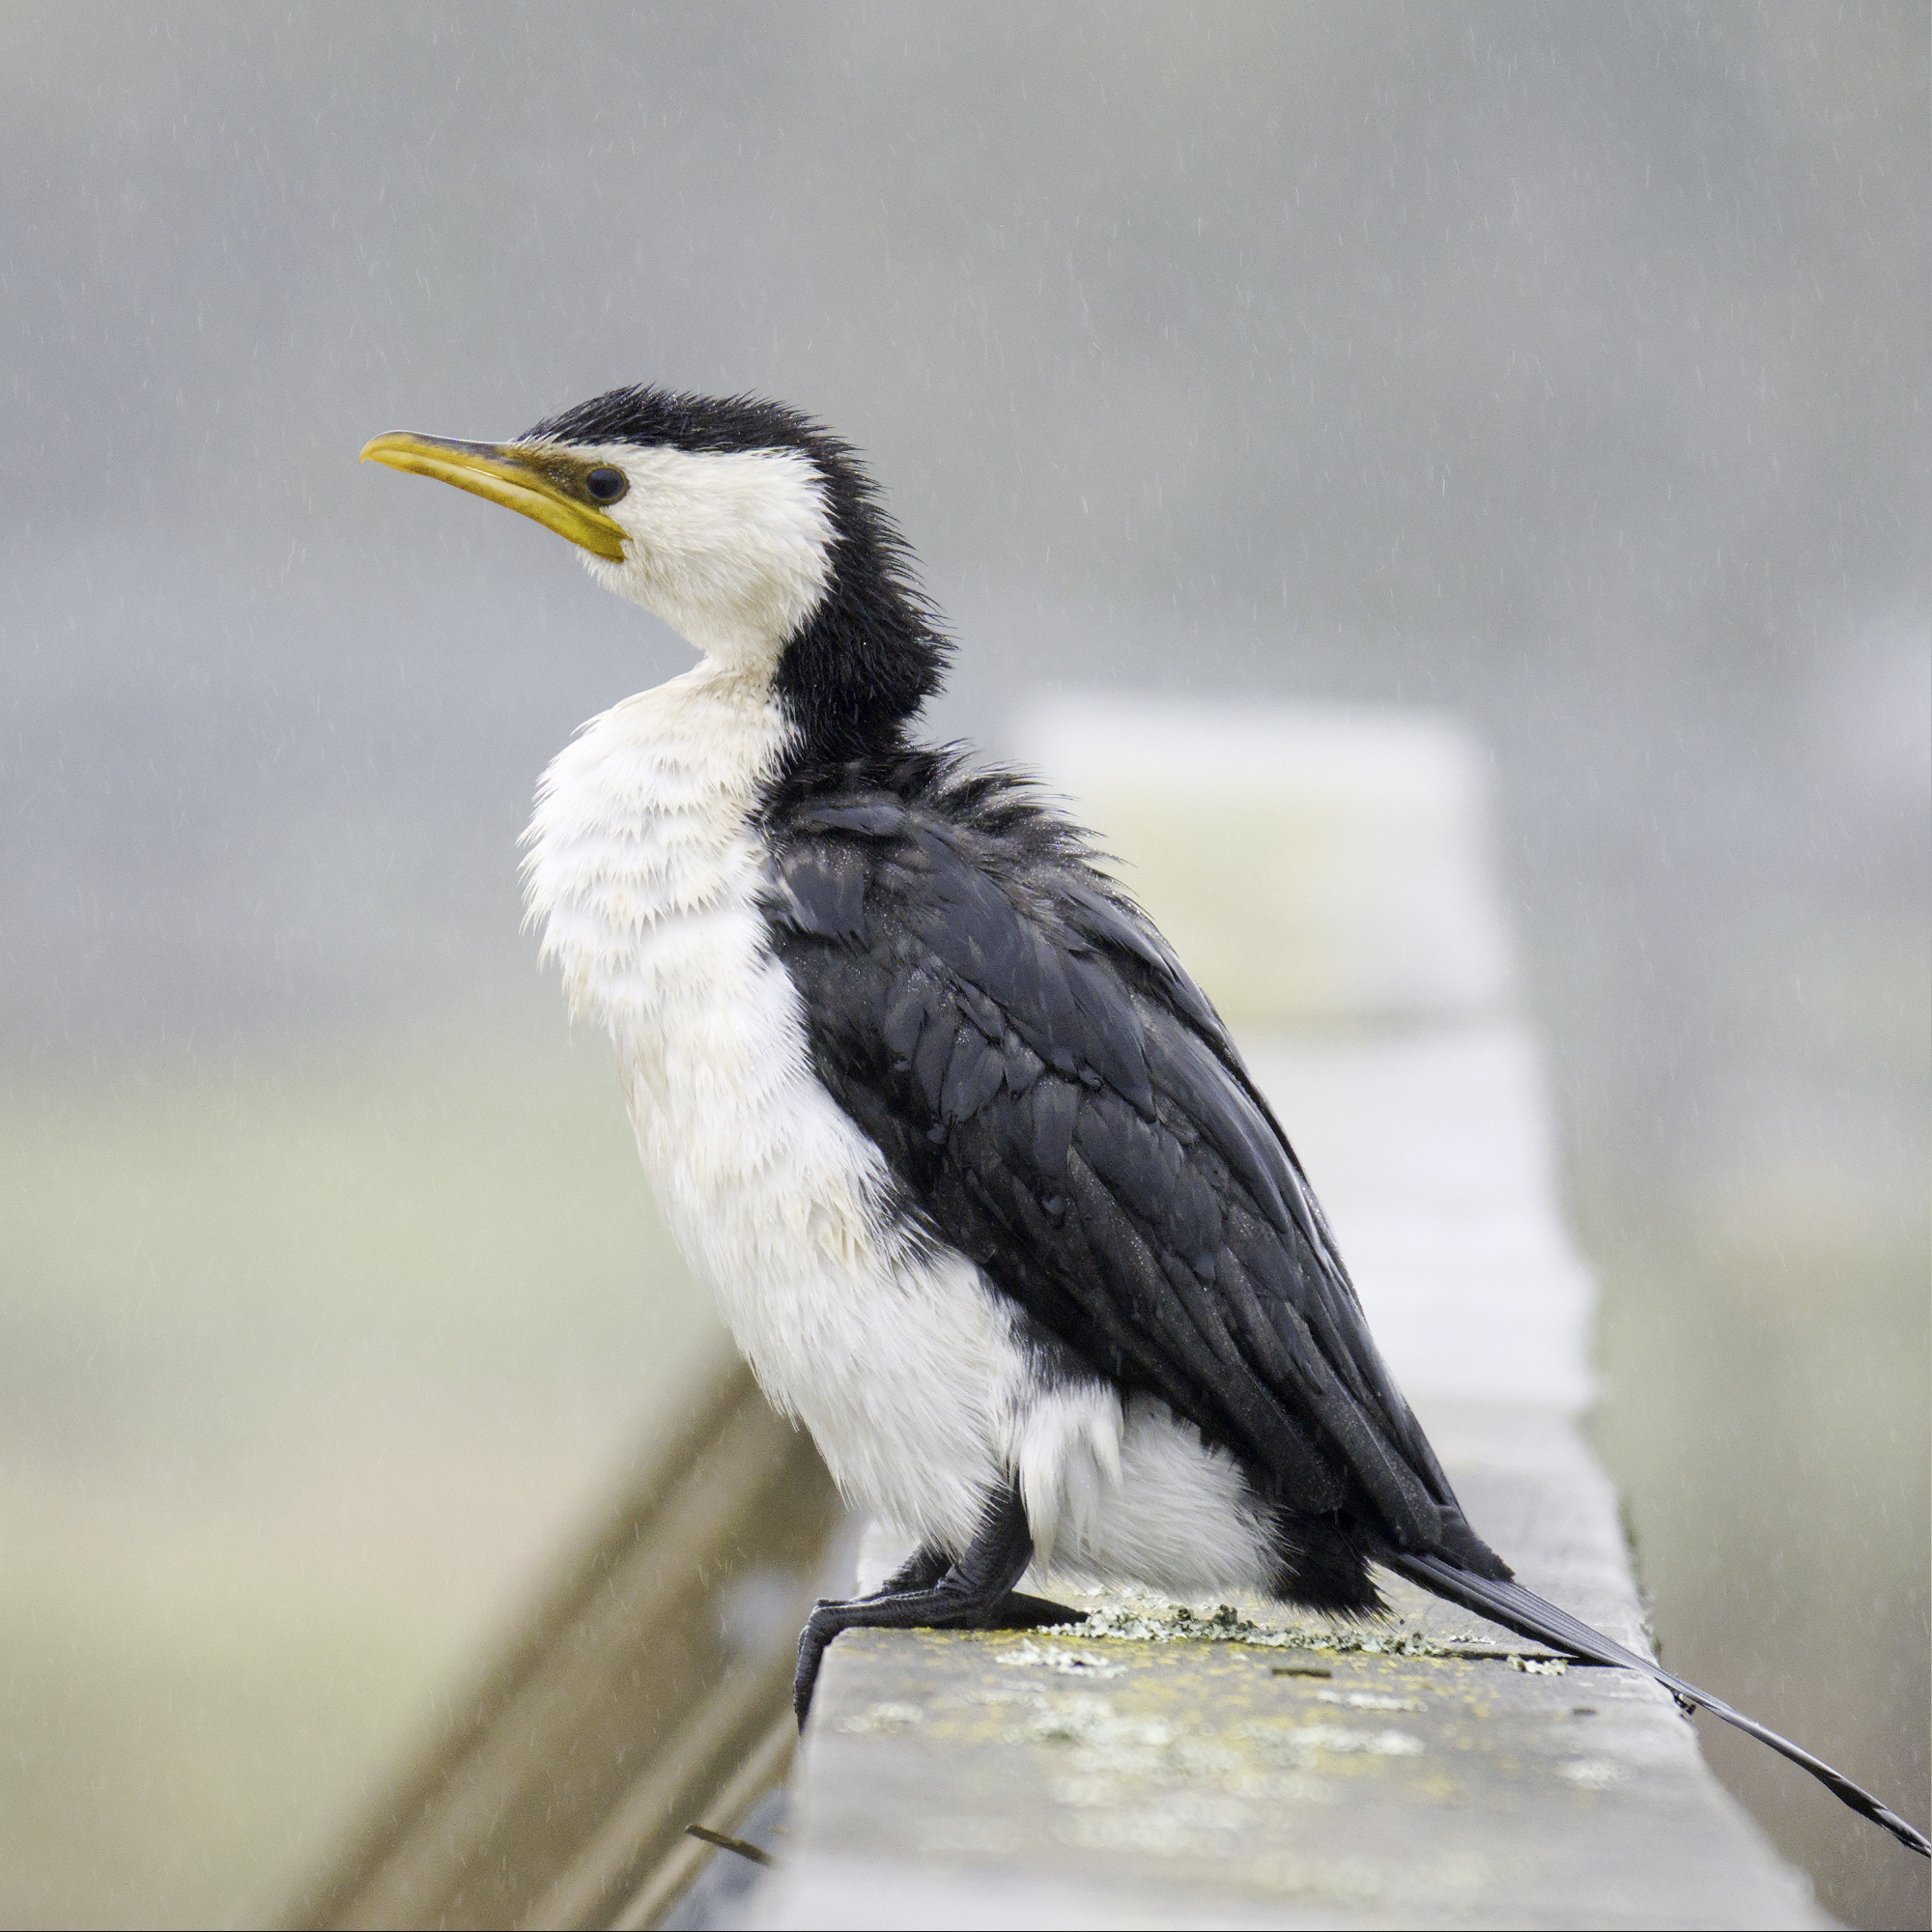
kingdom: Animalia
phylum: Chordata
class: Aves
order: Suliformes
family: Phalacrocoracidae
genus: Microcarbo
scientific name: Microcarbo melanoleucos
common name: Little pied cormorant
